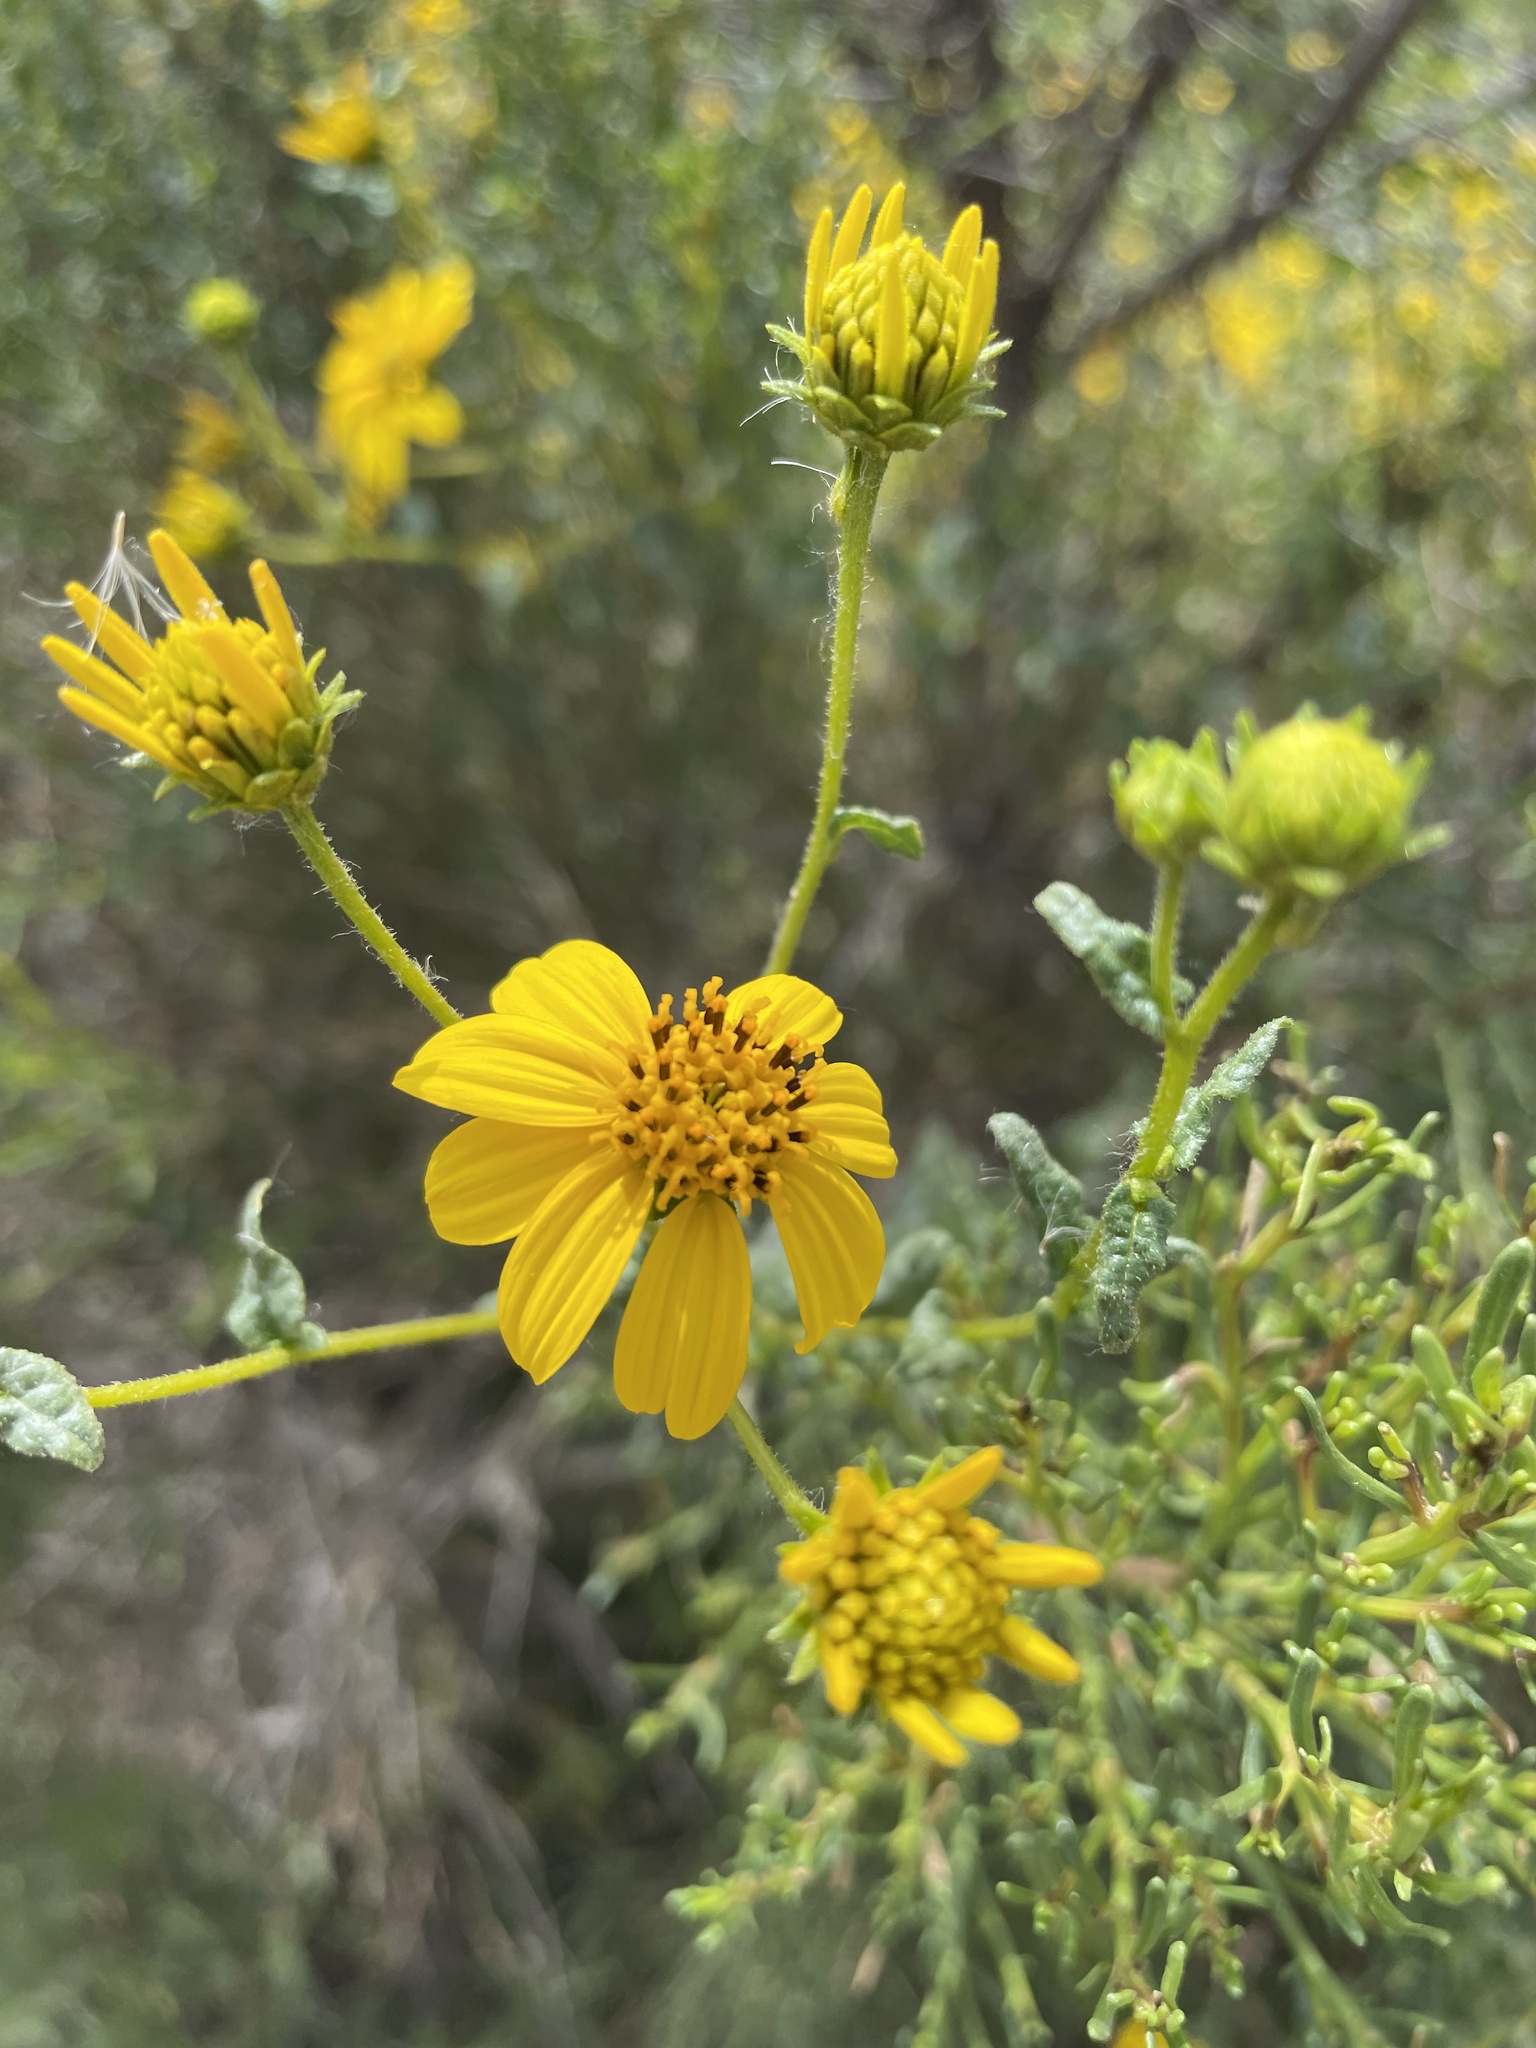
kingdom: Plantae
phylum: Tracheophyta
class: Magnoliopsida
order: Asterales
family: Asteraceae
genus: Bahiopsis
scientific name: Bahiopsis laciniata
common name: San diego county viguiera
